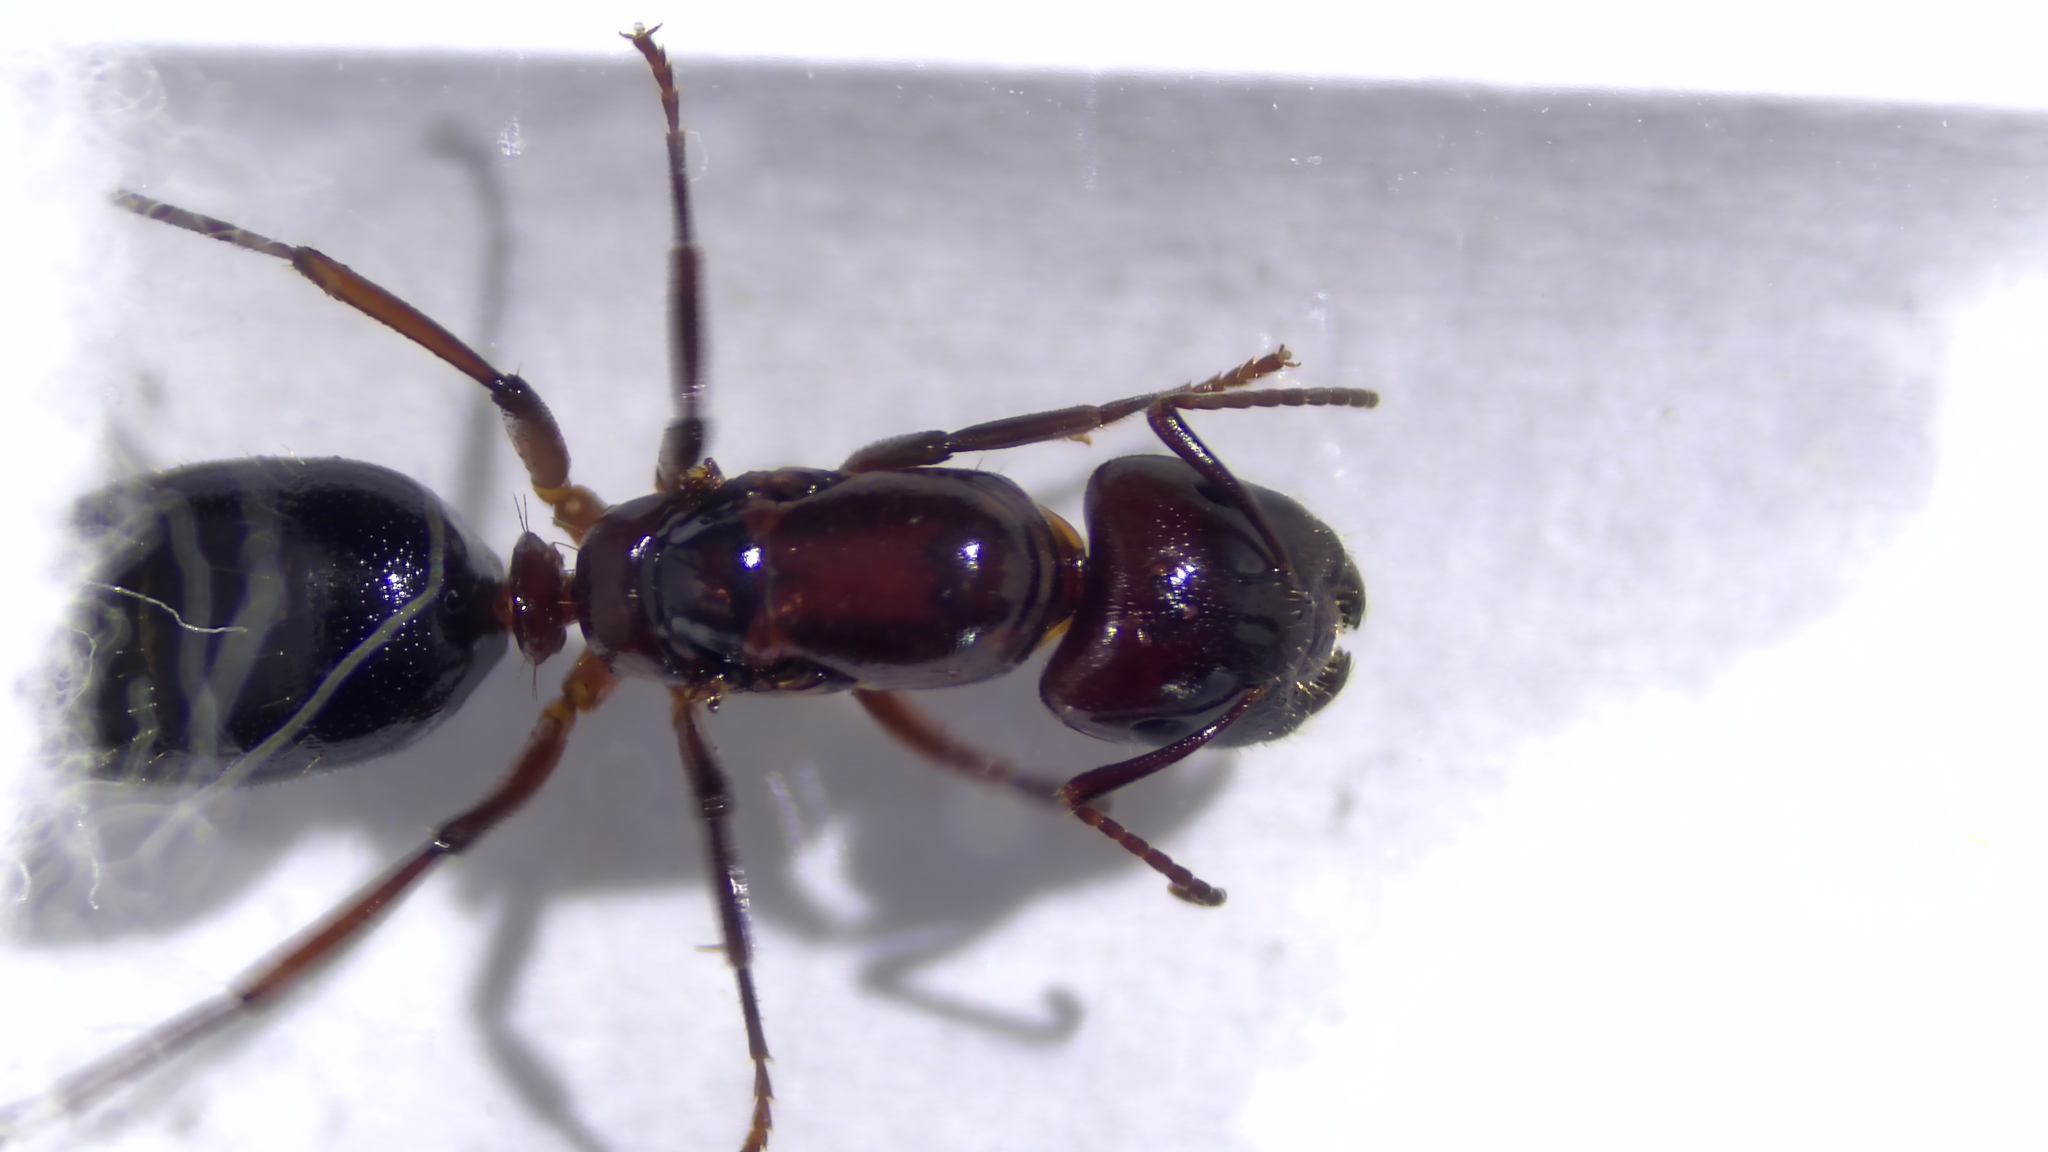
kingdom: Animalia
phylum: Arthropoda
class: Insecta
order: Hymenoptera
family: Formicidae
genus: Camponotus
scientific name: Camponotus discolor
